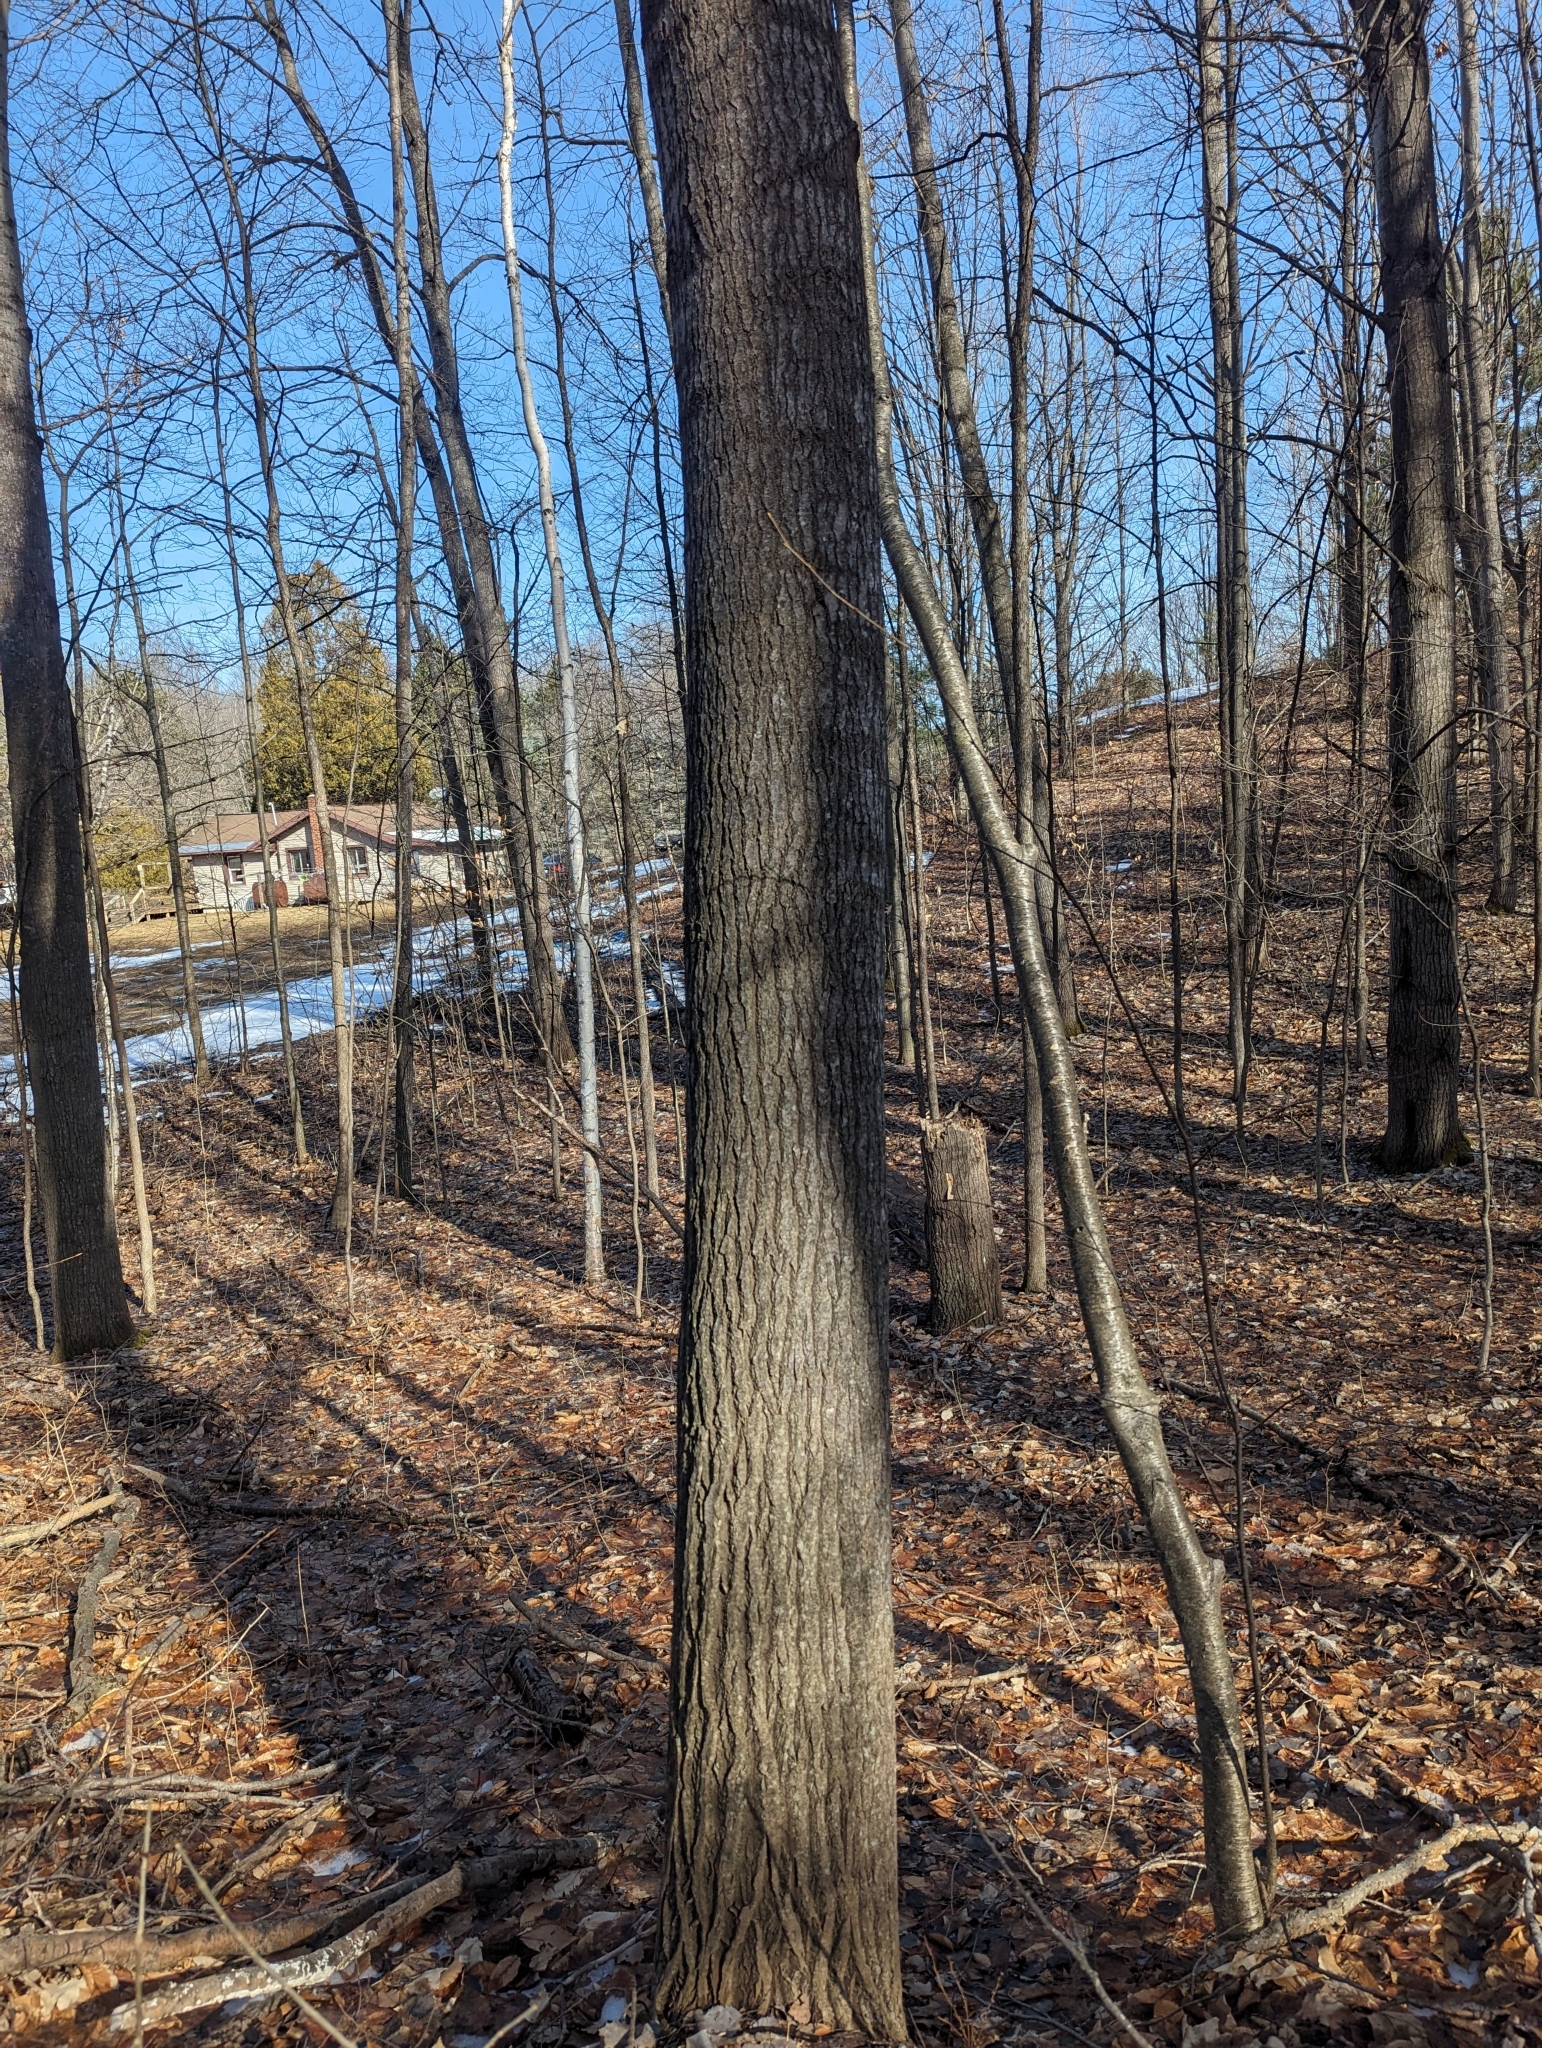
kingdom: Plantae
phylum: Tracheophyta
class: Magnoliopsida
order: Malpighiales
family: Salicaceae
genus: Populus
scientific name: Populus grandidentata
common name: Bigtooth aspen
